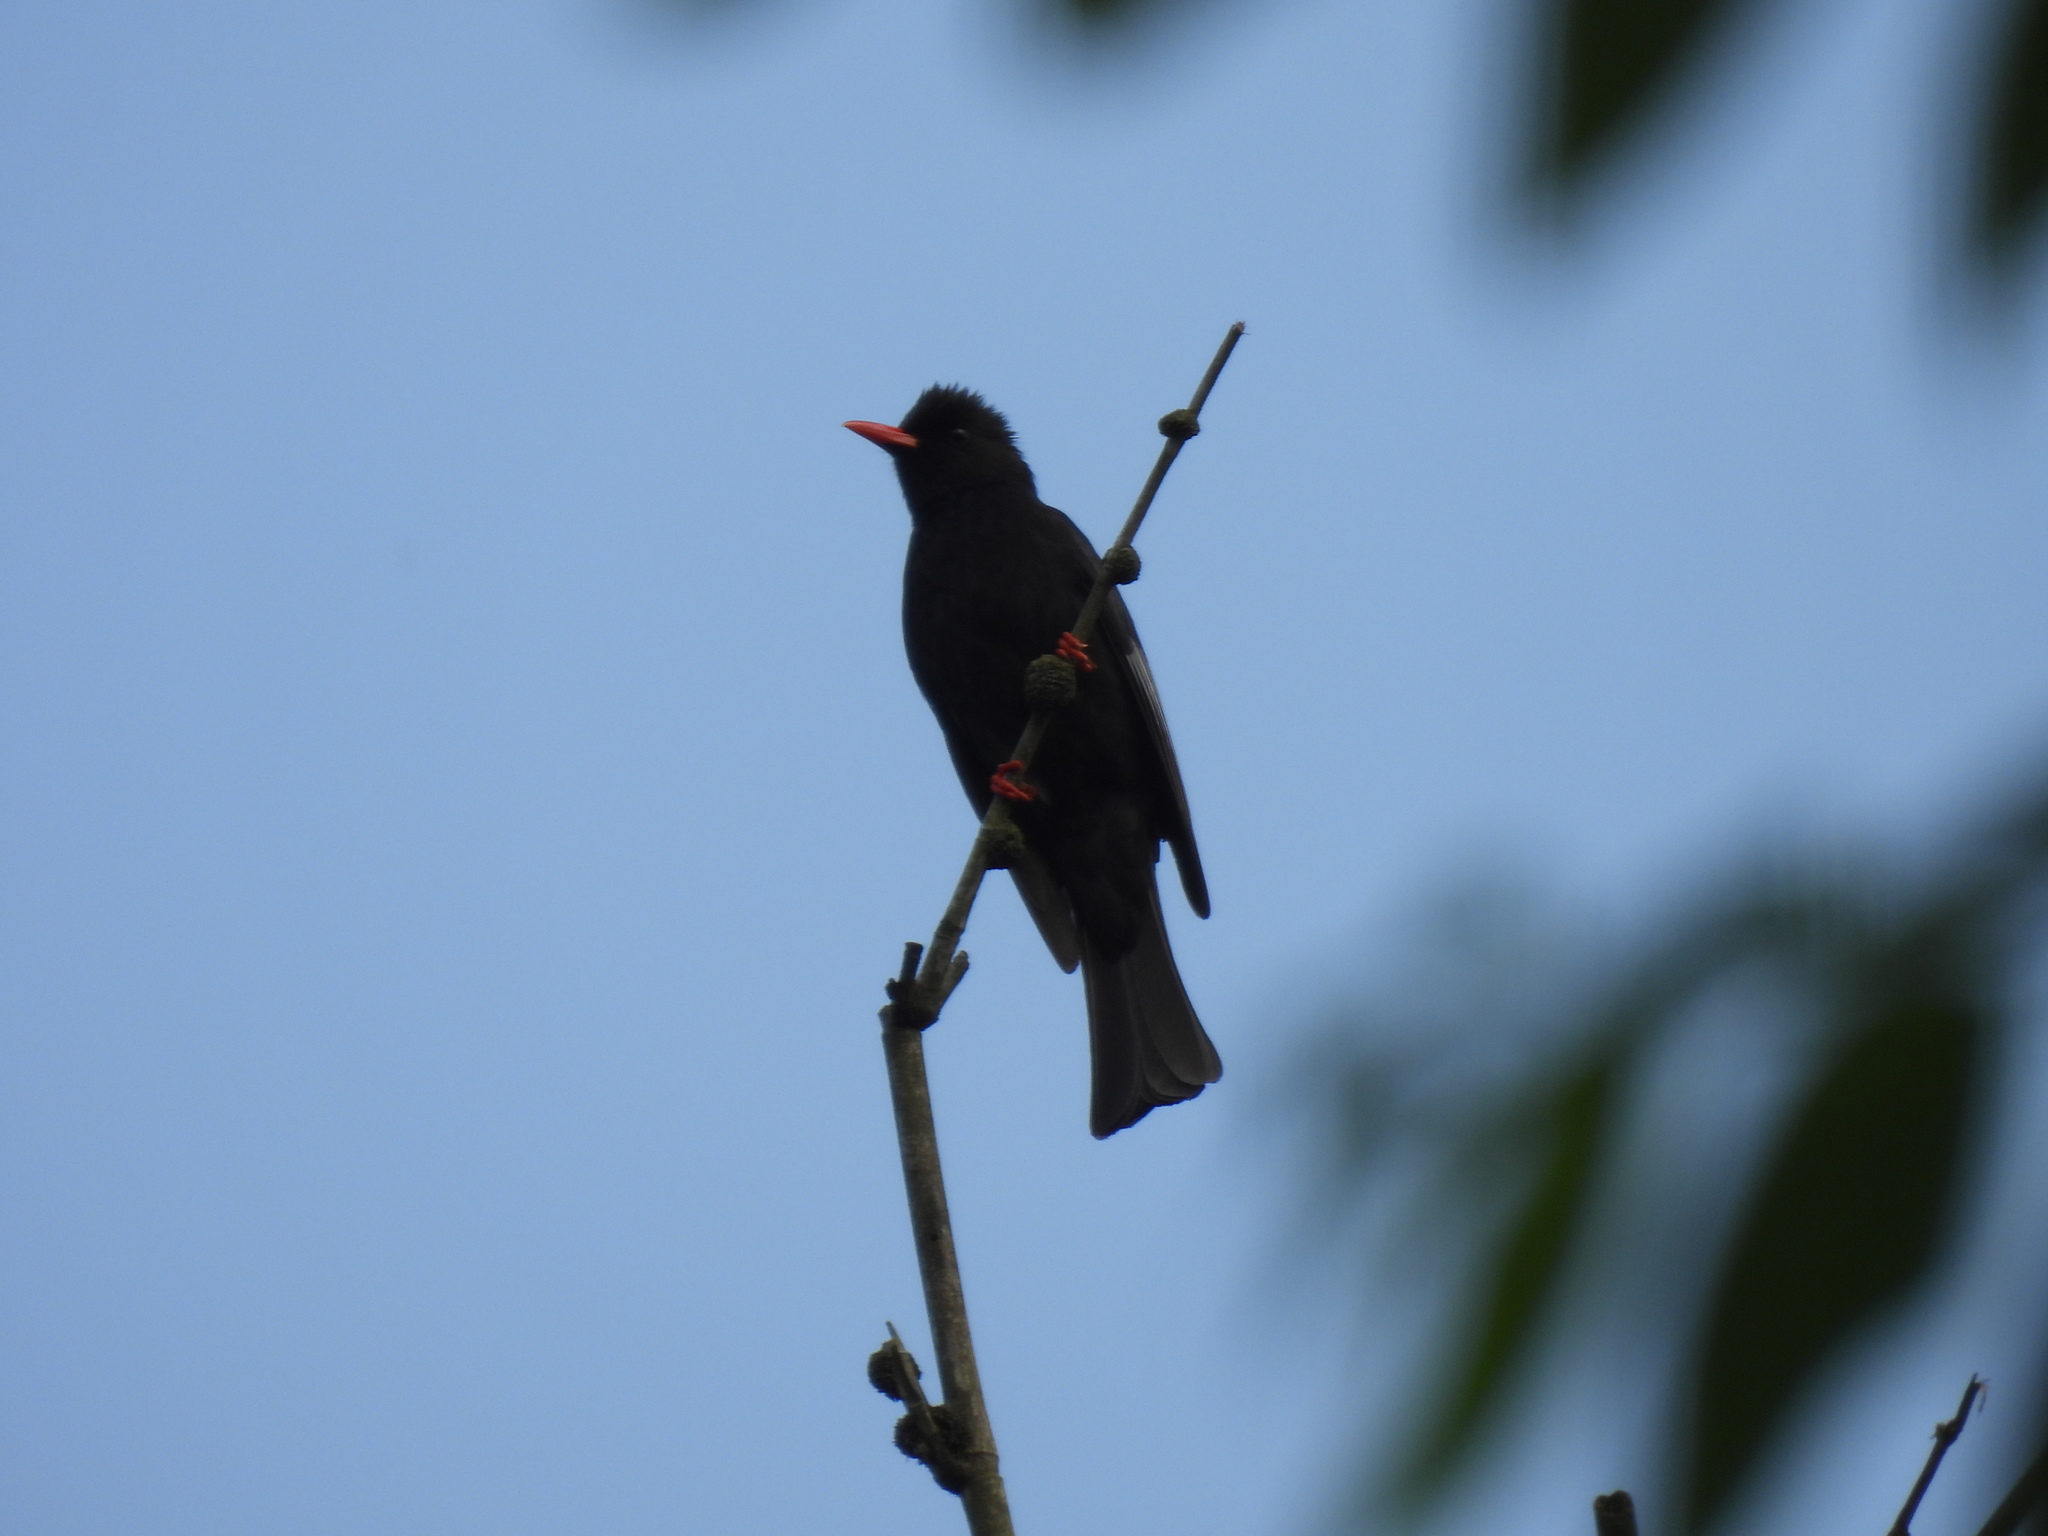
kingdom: Animalia
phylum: Chordata
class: Aves
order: Passeriformes
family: Pycnonotidae
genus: Hypsipetes
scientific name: Hypsipetes leucocephalus
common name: Black bulbul
